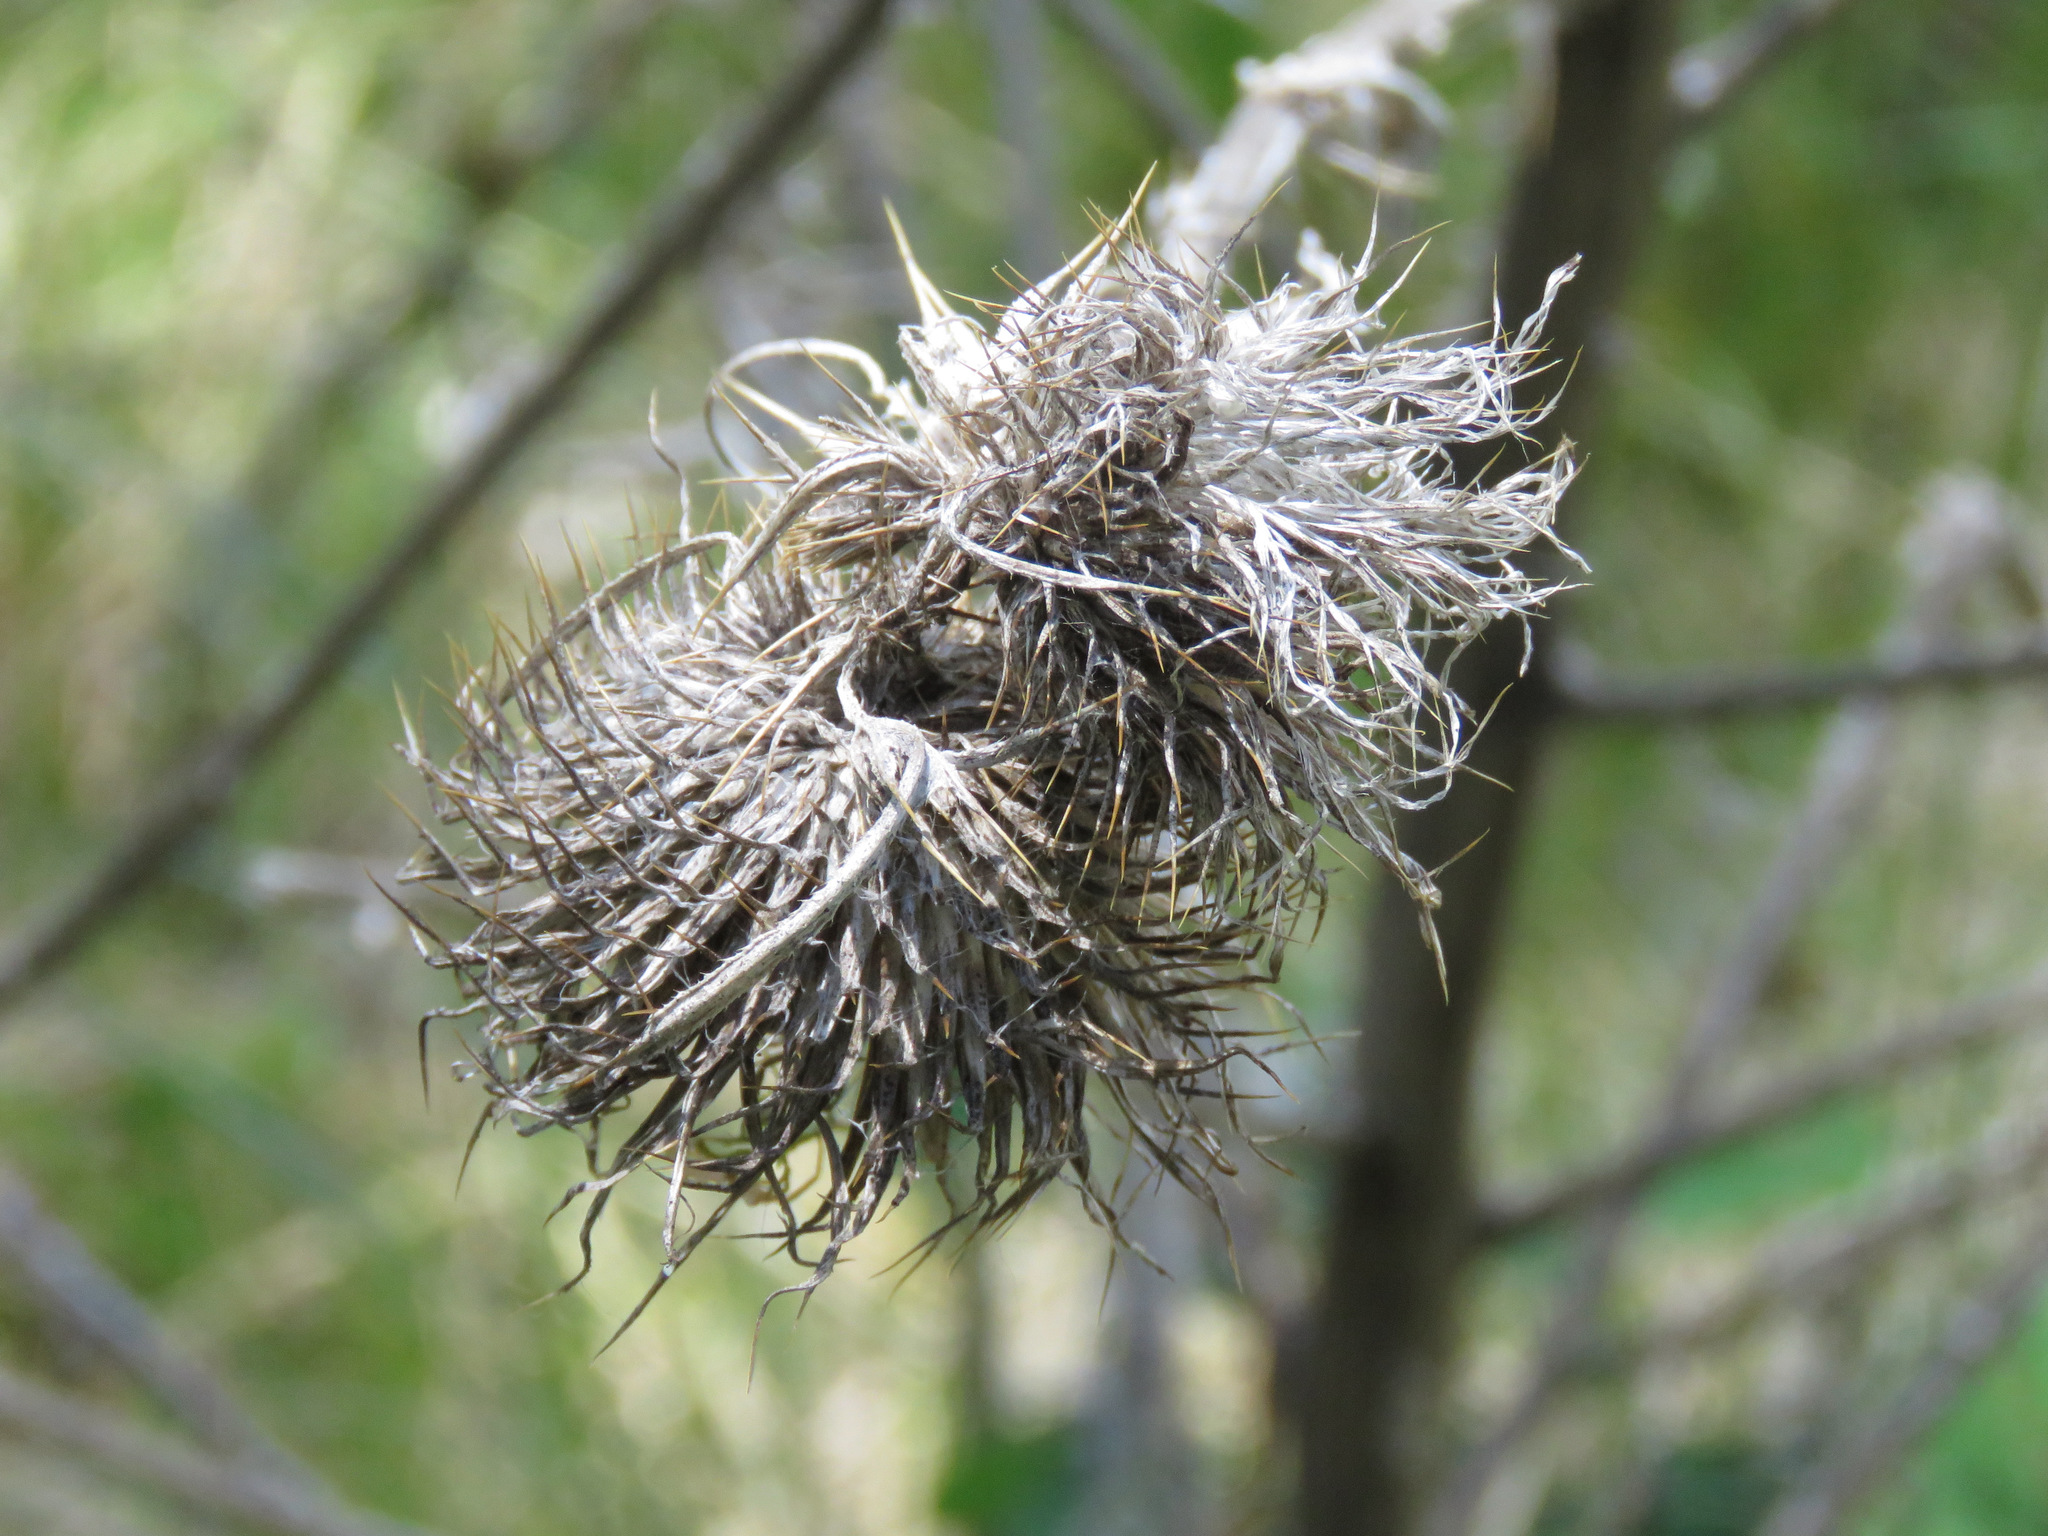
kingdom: Plantae
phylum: Tracheophyta
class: Magnoliopsida
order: Asterales
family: Asteraceae
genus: Cirsium
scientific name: Cirsium vulgare
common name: Bull thistle
